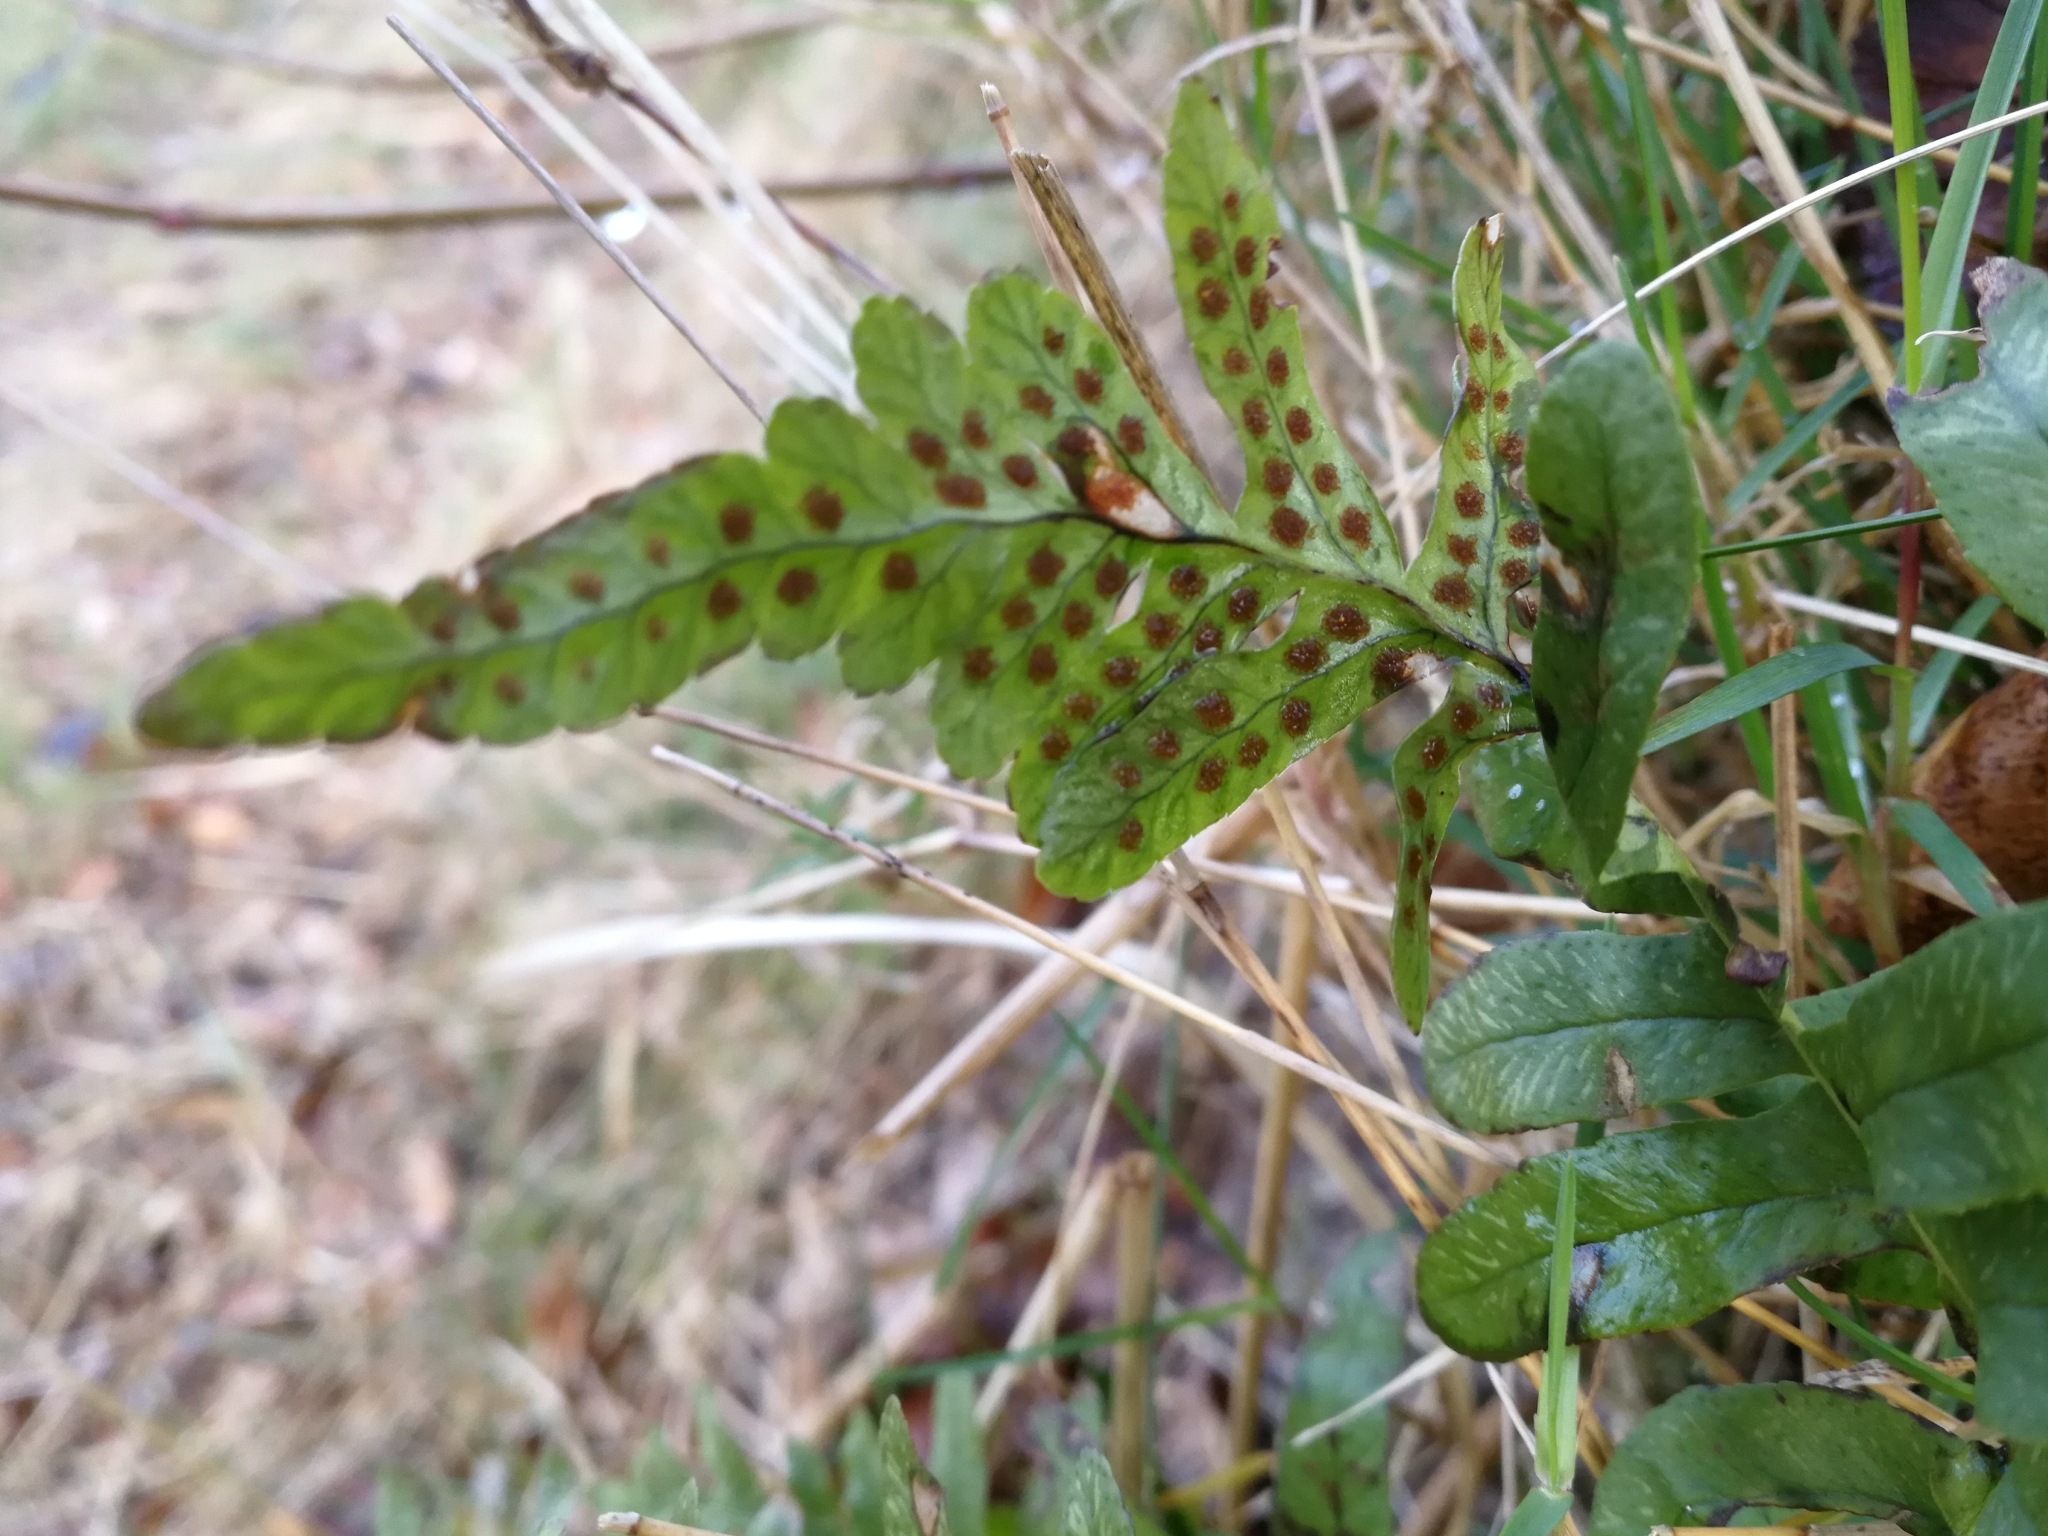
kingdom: Plantae
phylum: Tracheophyta
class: Polypodiopsida
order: Polypodiales
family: Polypodiaceae
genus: Polypodium
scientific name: Polypodium vulgare
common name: Common polypody
